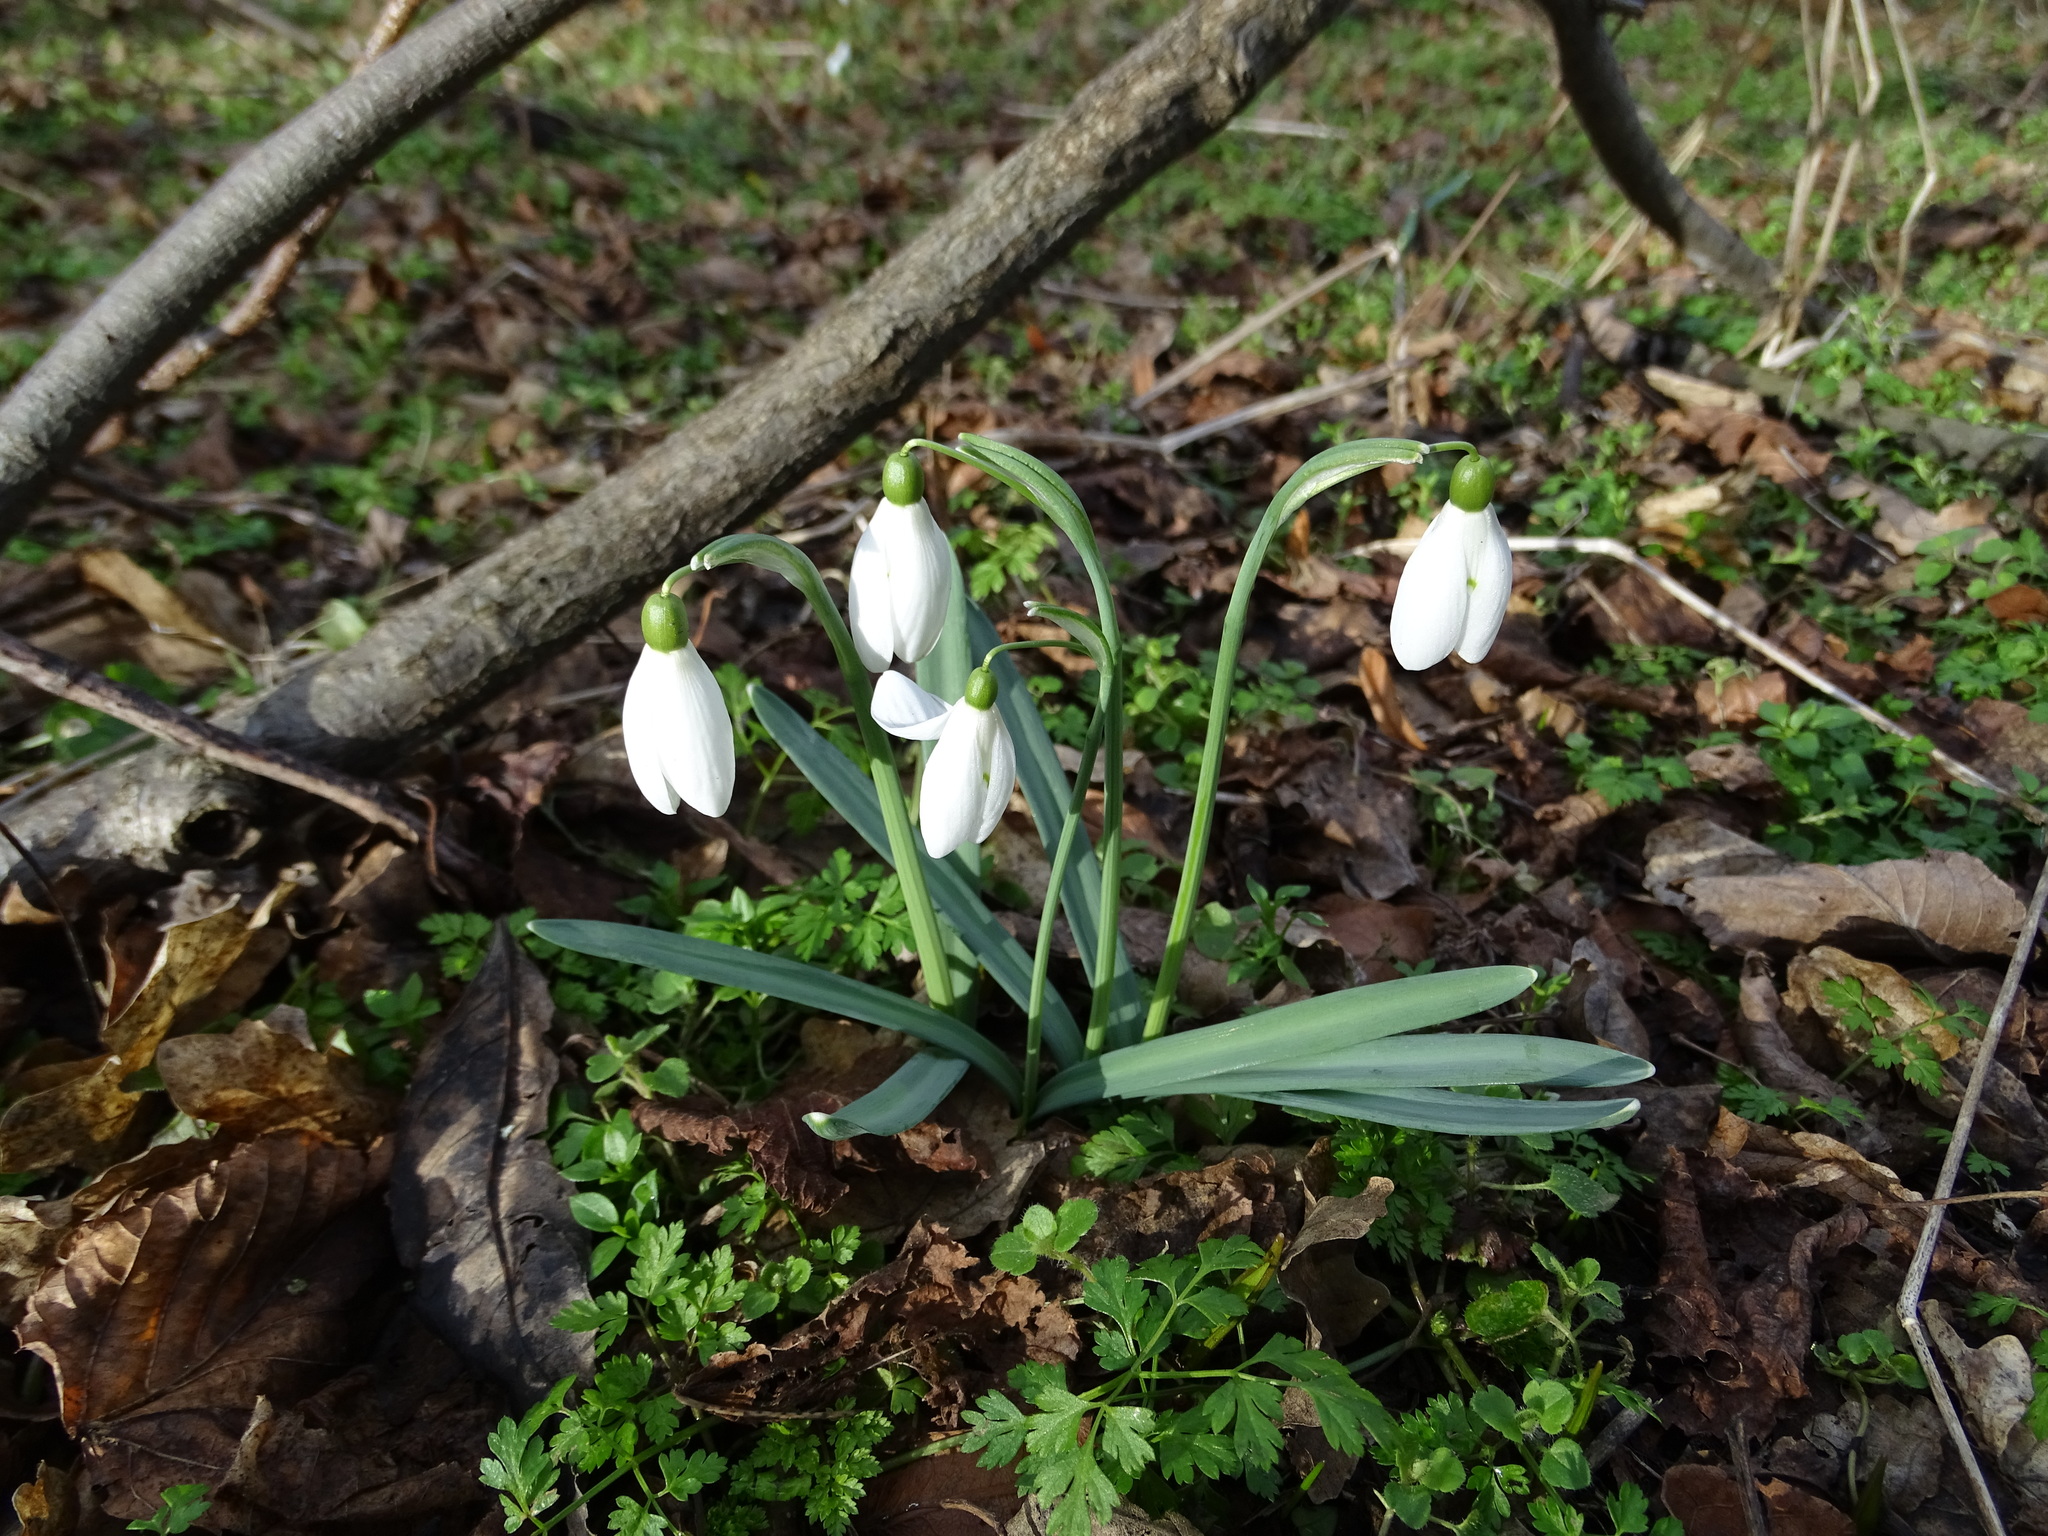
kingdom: Plantae
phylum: Tracheophyta
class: Liliopsida
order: Asparagales
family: Amaryllidaceae
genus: Galanthus
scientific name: Galanthus nivalis
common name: Snowdrop
